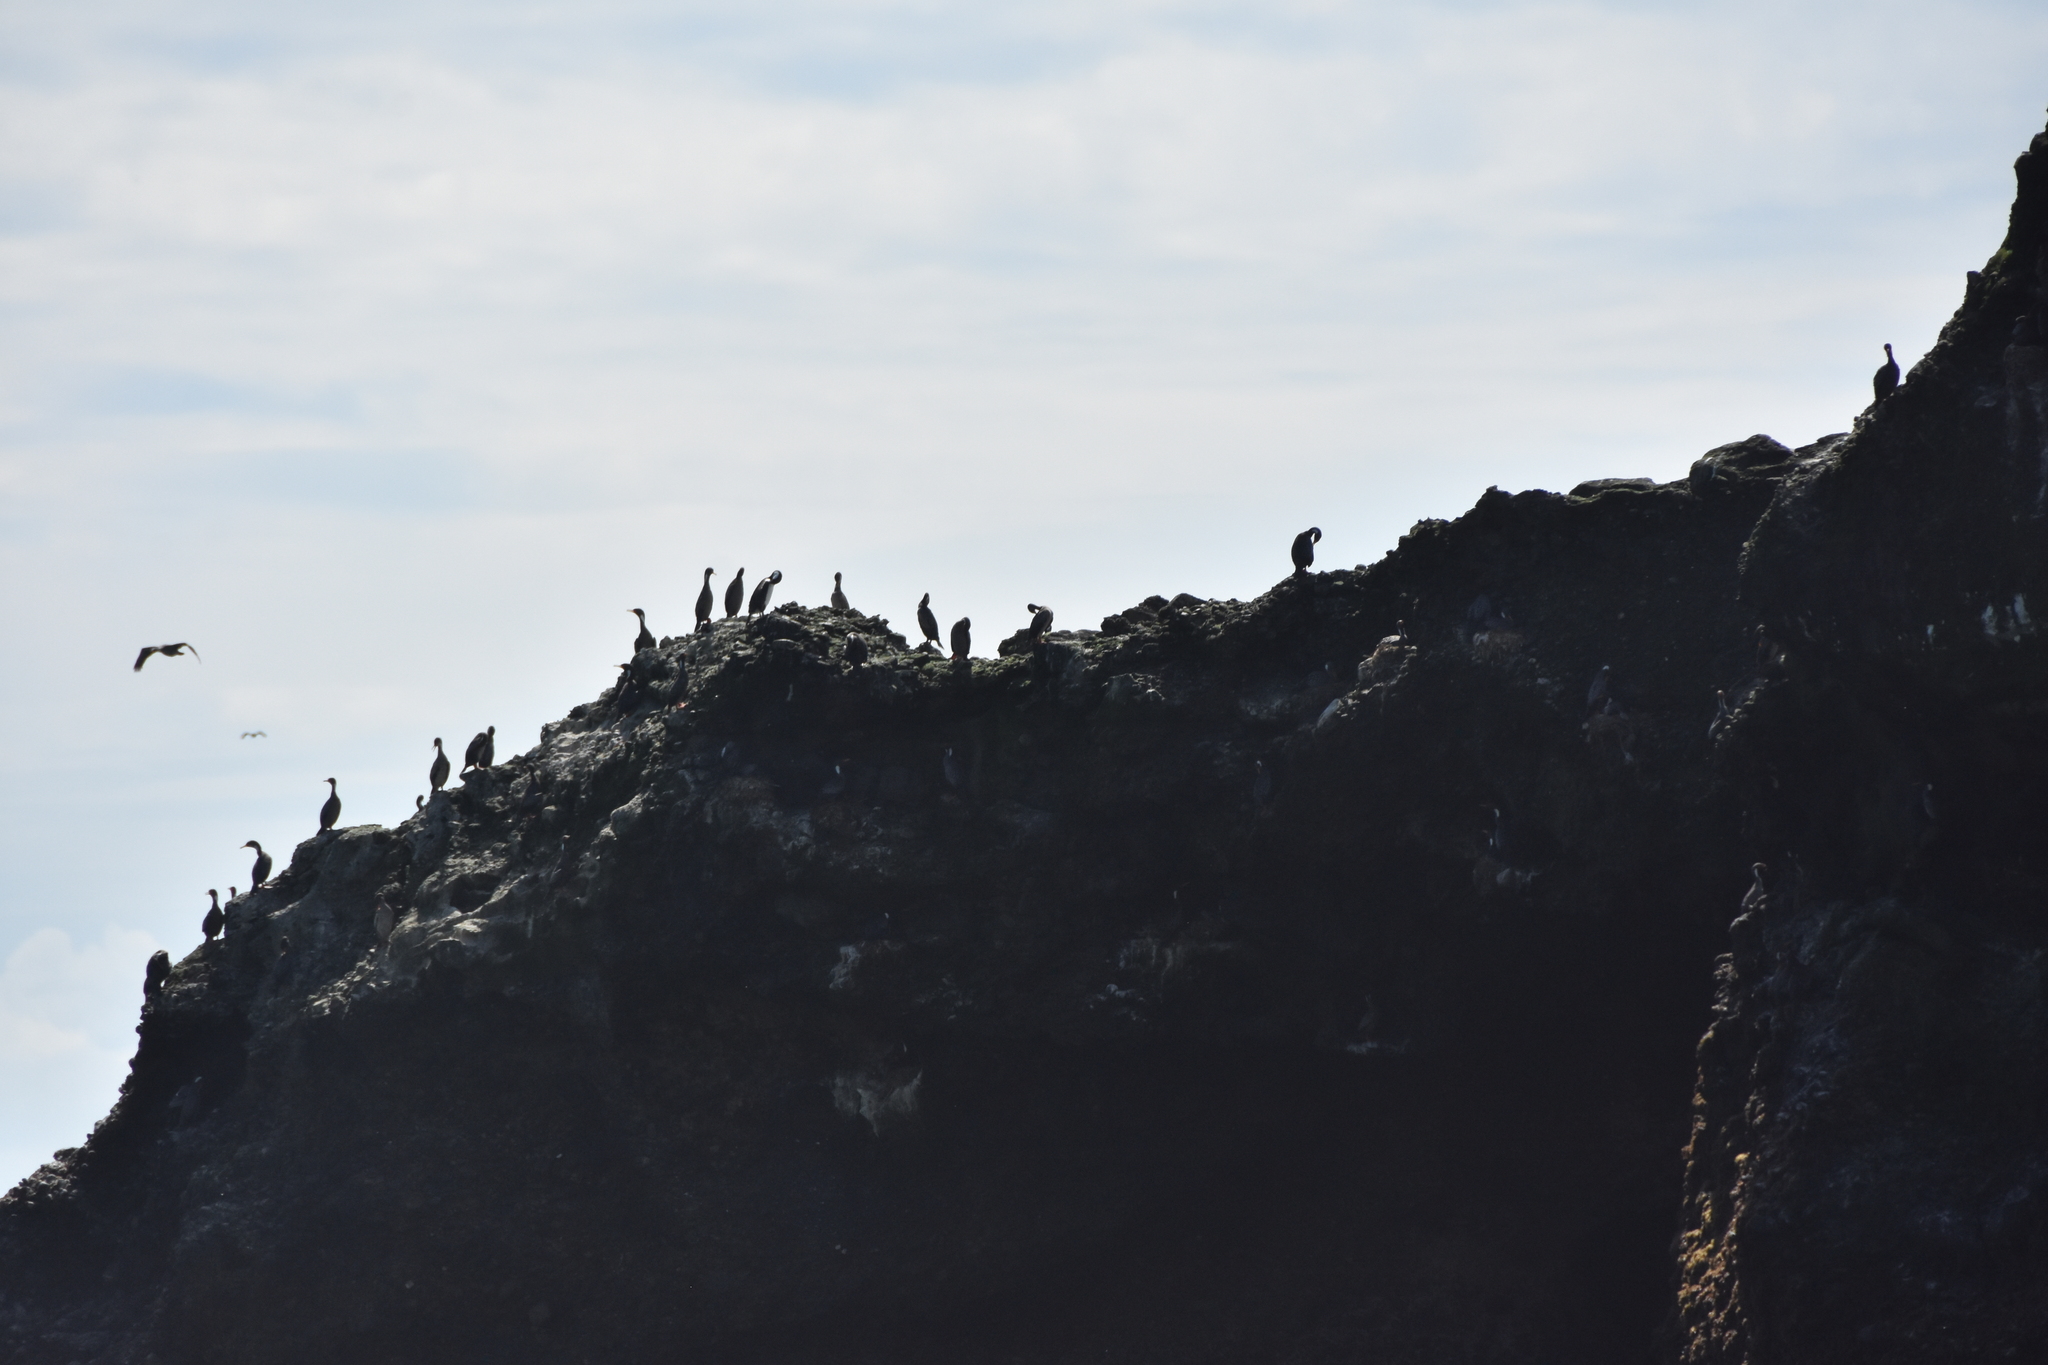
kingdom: Animalia
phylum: Chordata
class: Aves
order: Suliformes
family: Phalacrocoracidae
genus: Phalacrocorax
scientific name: Phalacrocorax gaimardi
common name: Red-legged cormorant
